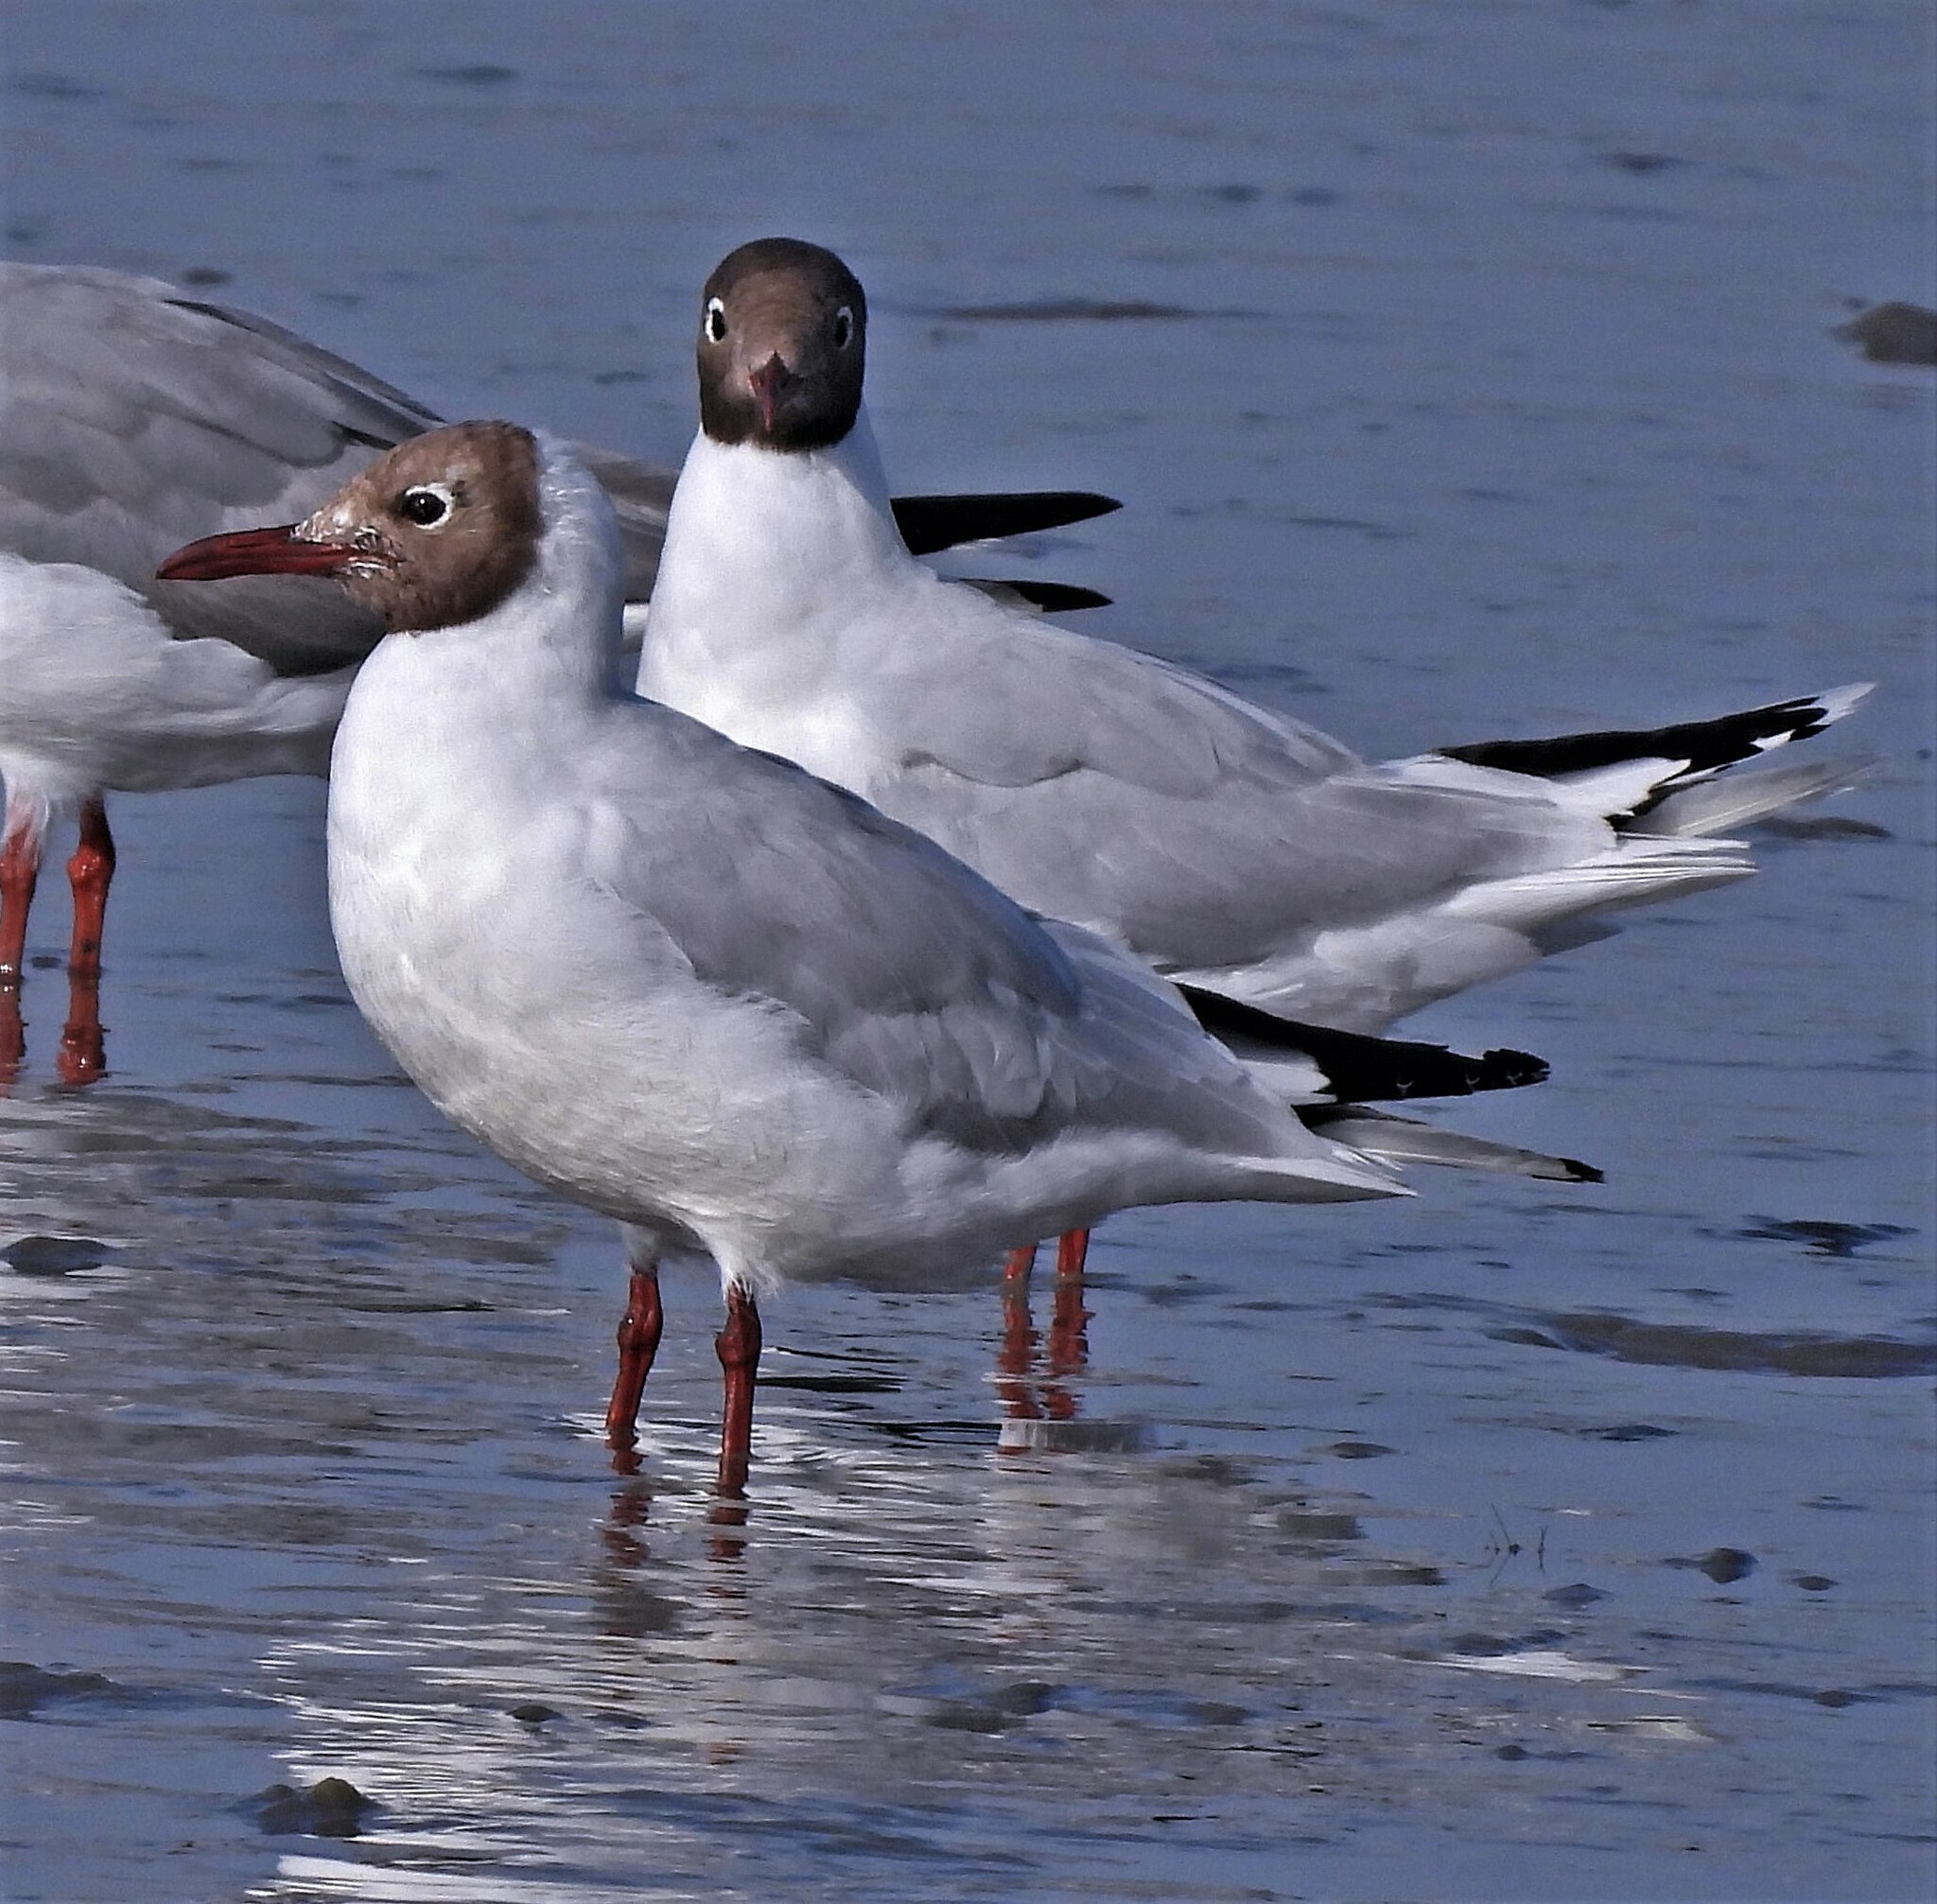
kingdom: Animalia
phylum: Chordata
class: Aves
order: Charadriiformes
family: Laridae
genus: Chroicocephalus
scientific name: Chroicocephalus maculipennis
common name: Brown-hooded gull
